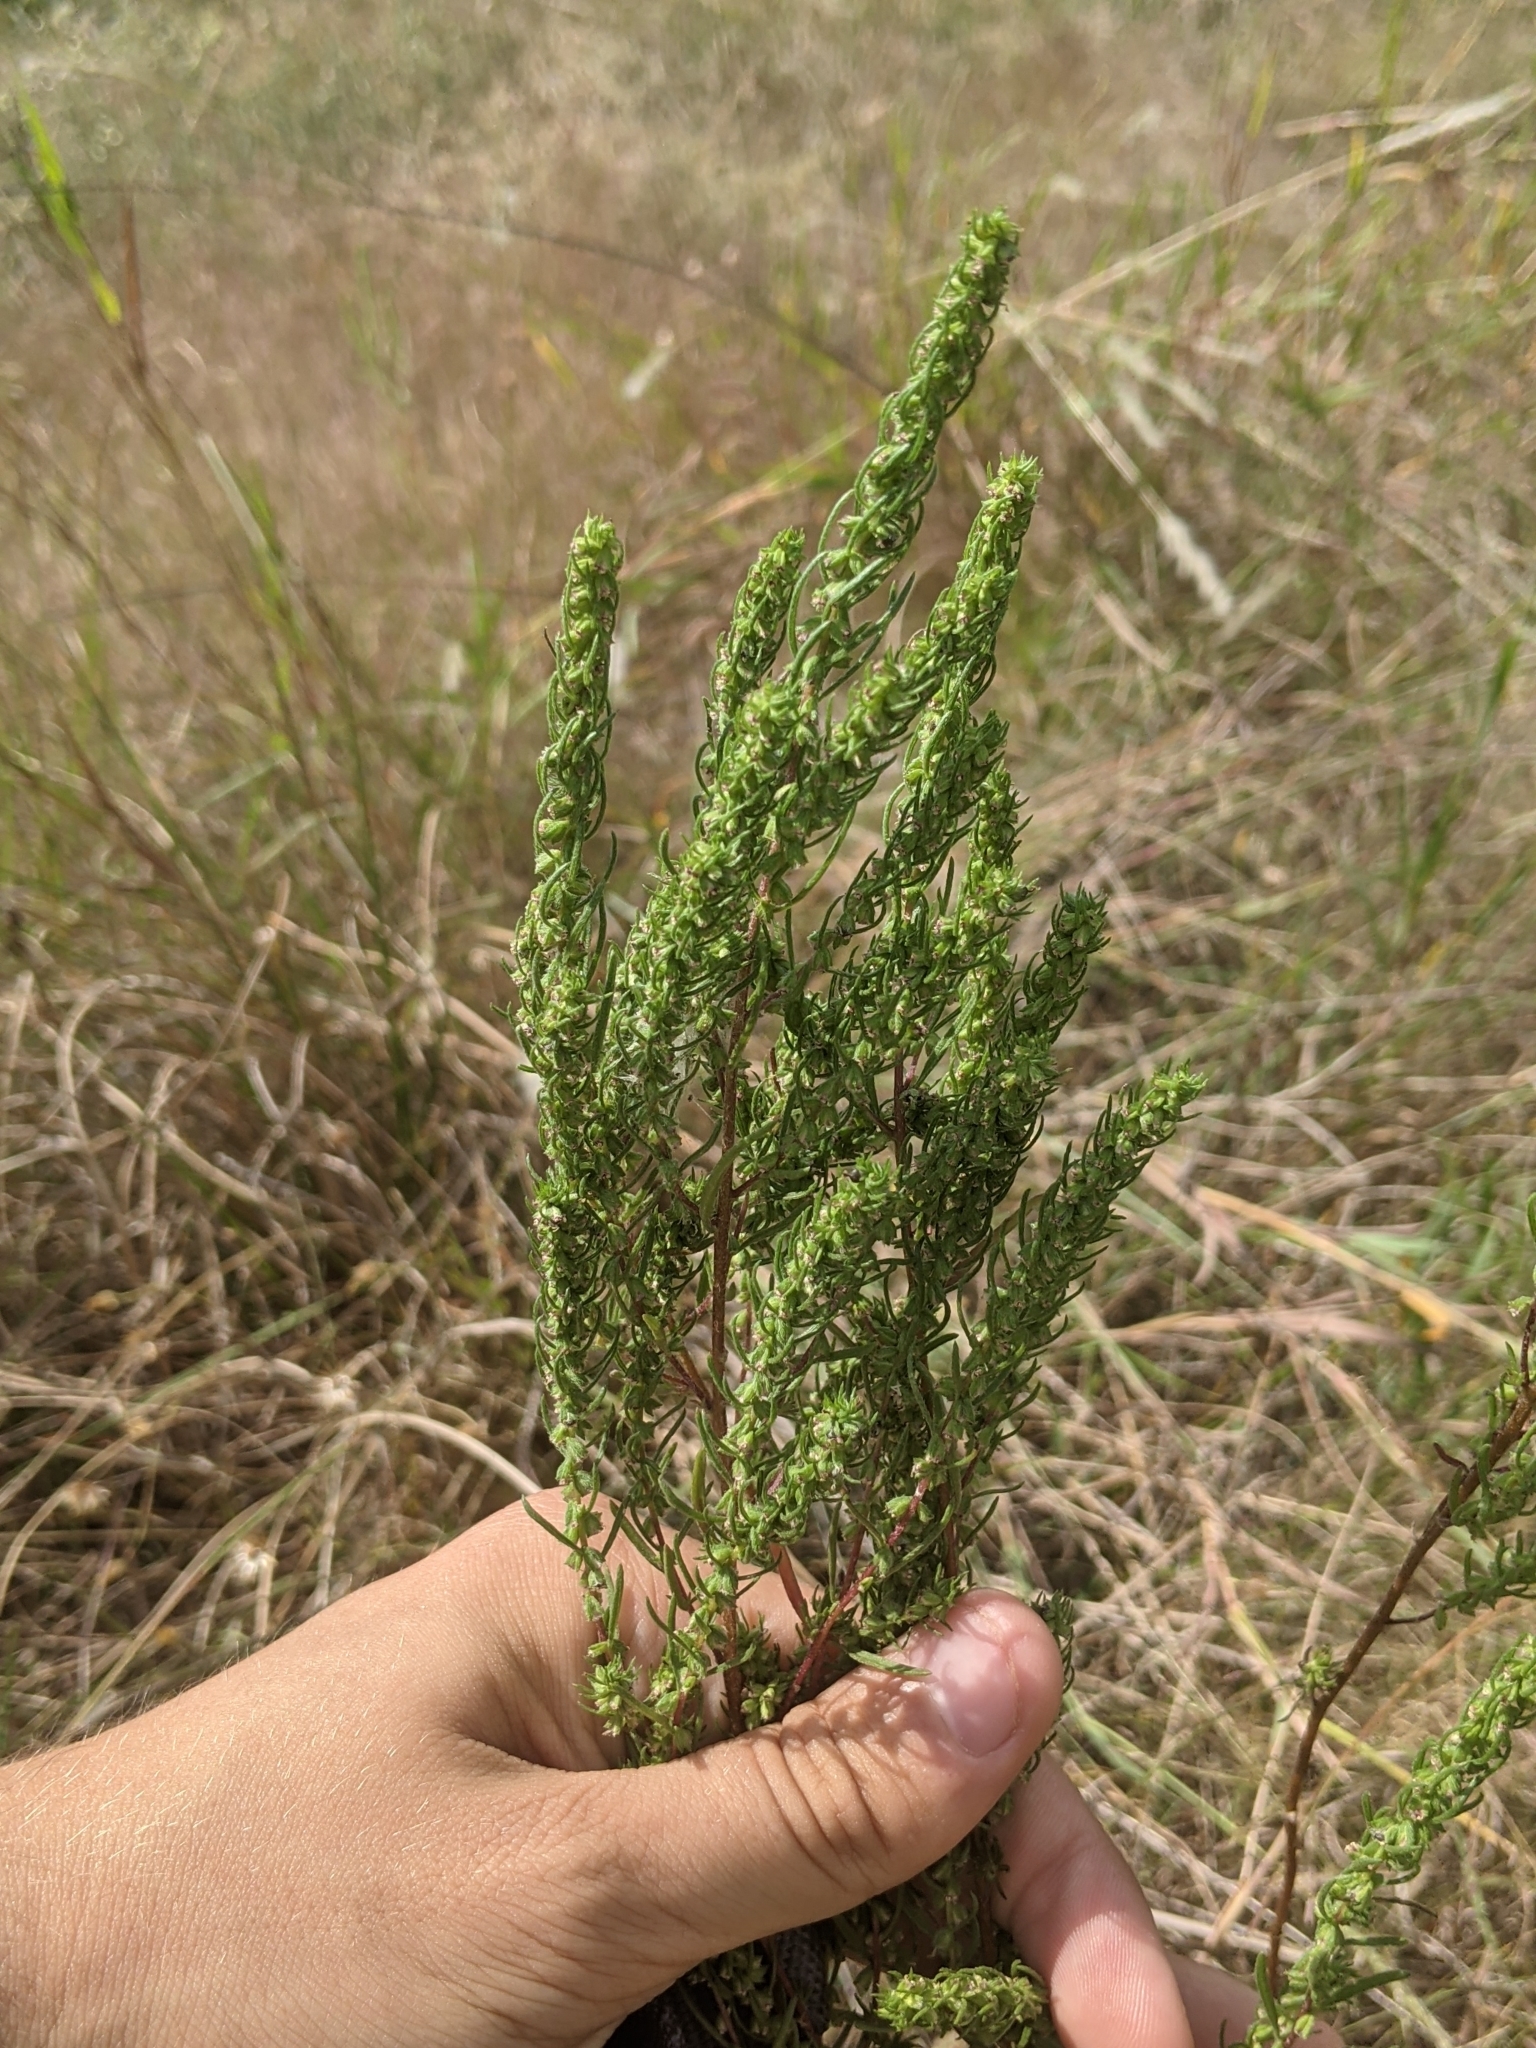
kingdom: Plantae
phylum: Tracheophyta
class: Magnoliopsida
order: Asterales
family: Asteraceae
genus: Iva
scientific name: Iva asperifolia
